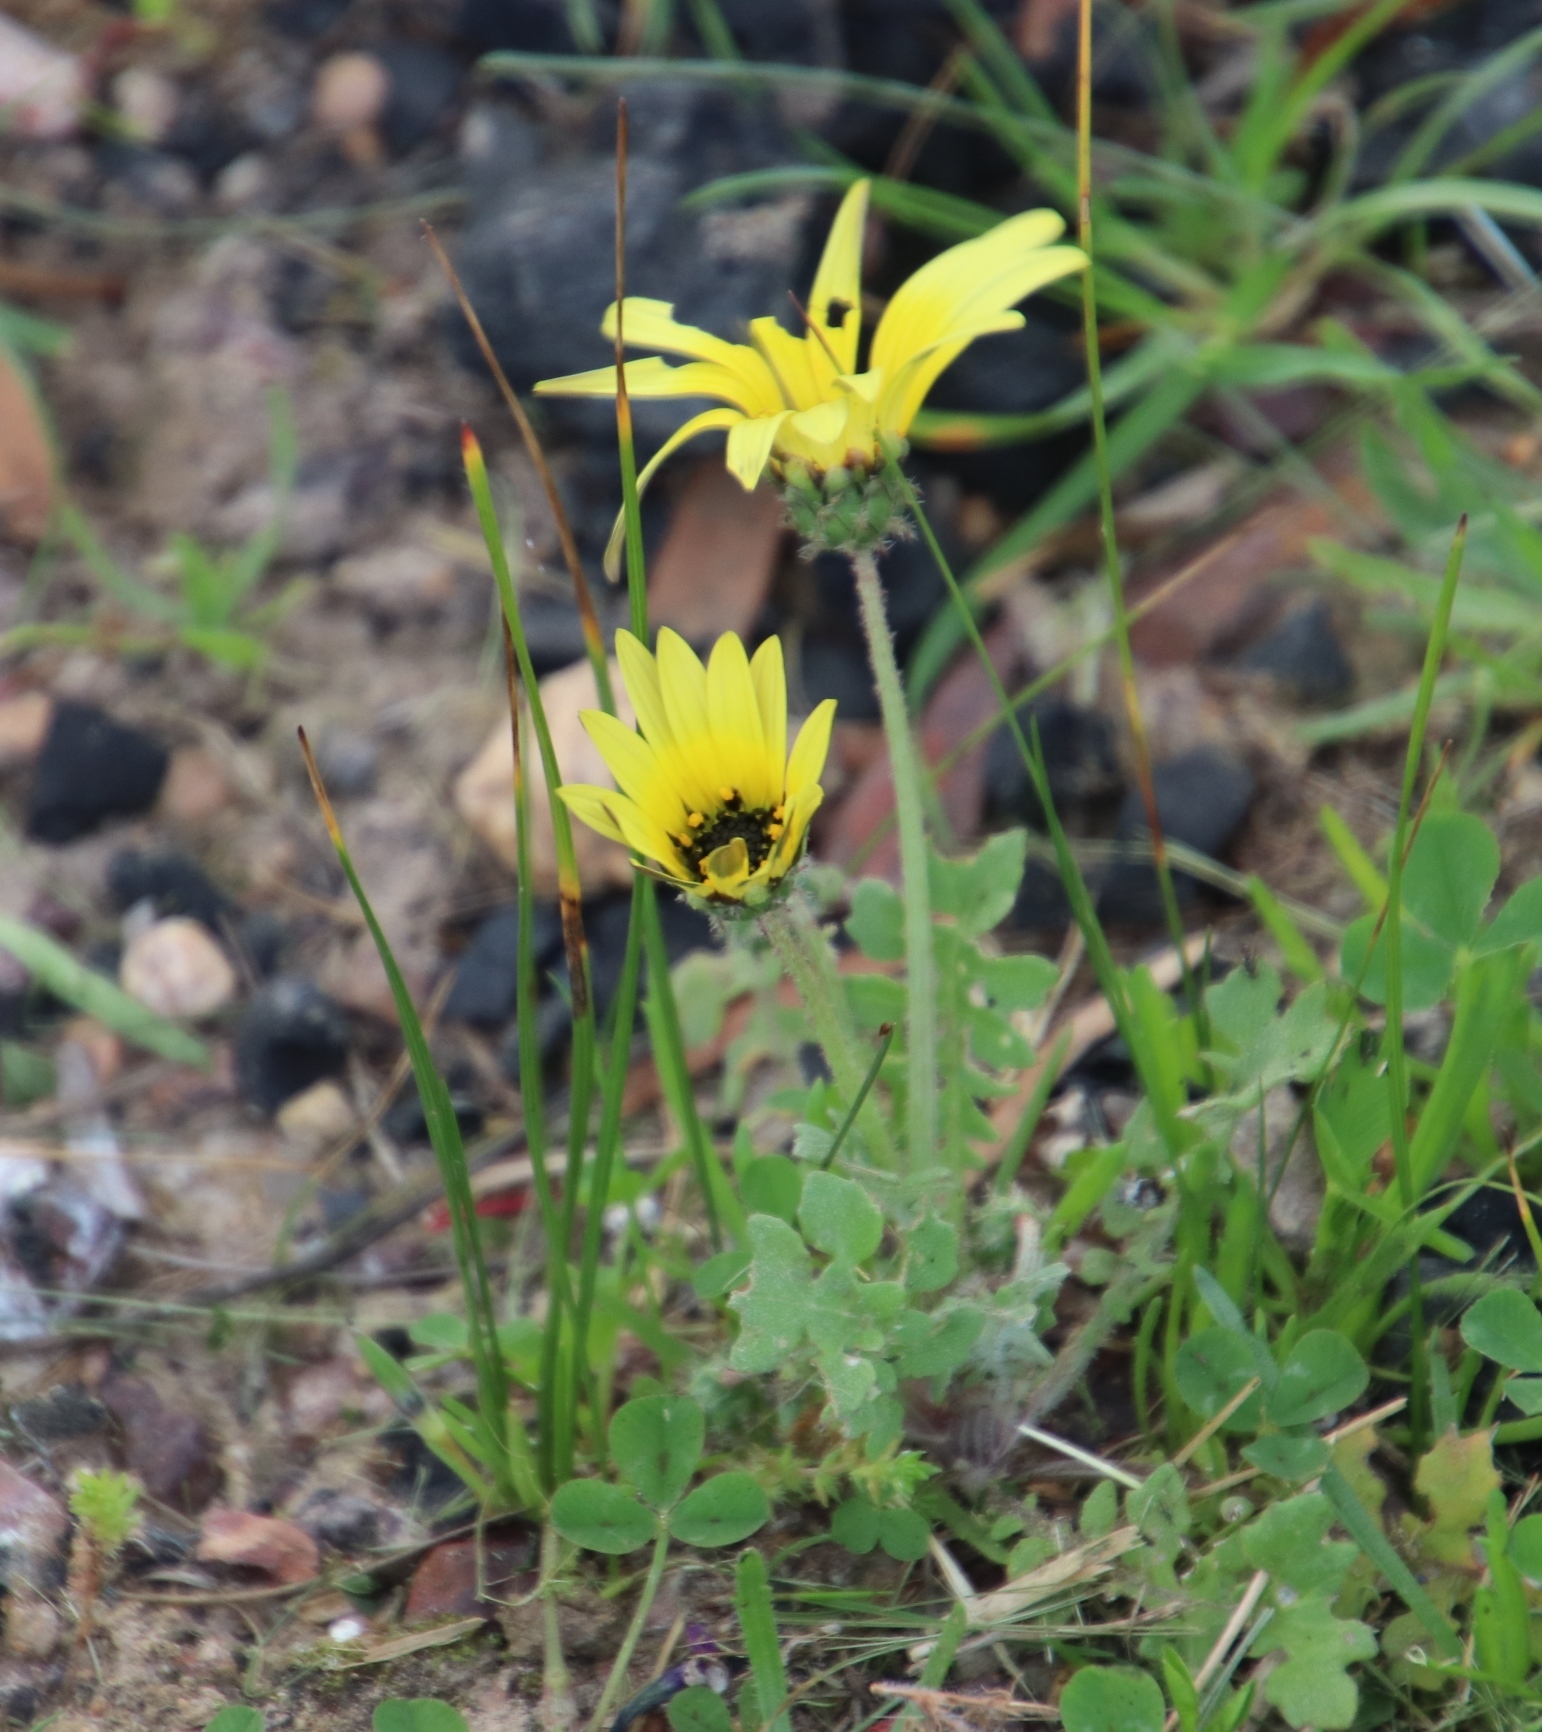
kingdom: Plantae
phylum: Tracheophyta
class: Magnoliopsida
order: Asterales
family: Asteraceae
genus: Arctotheca
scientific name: Arctotheca calendula
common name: Capeweed
